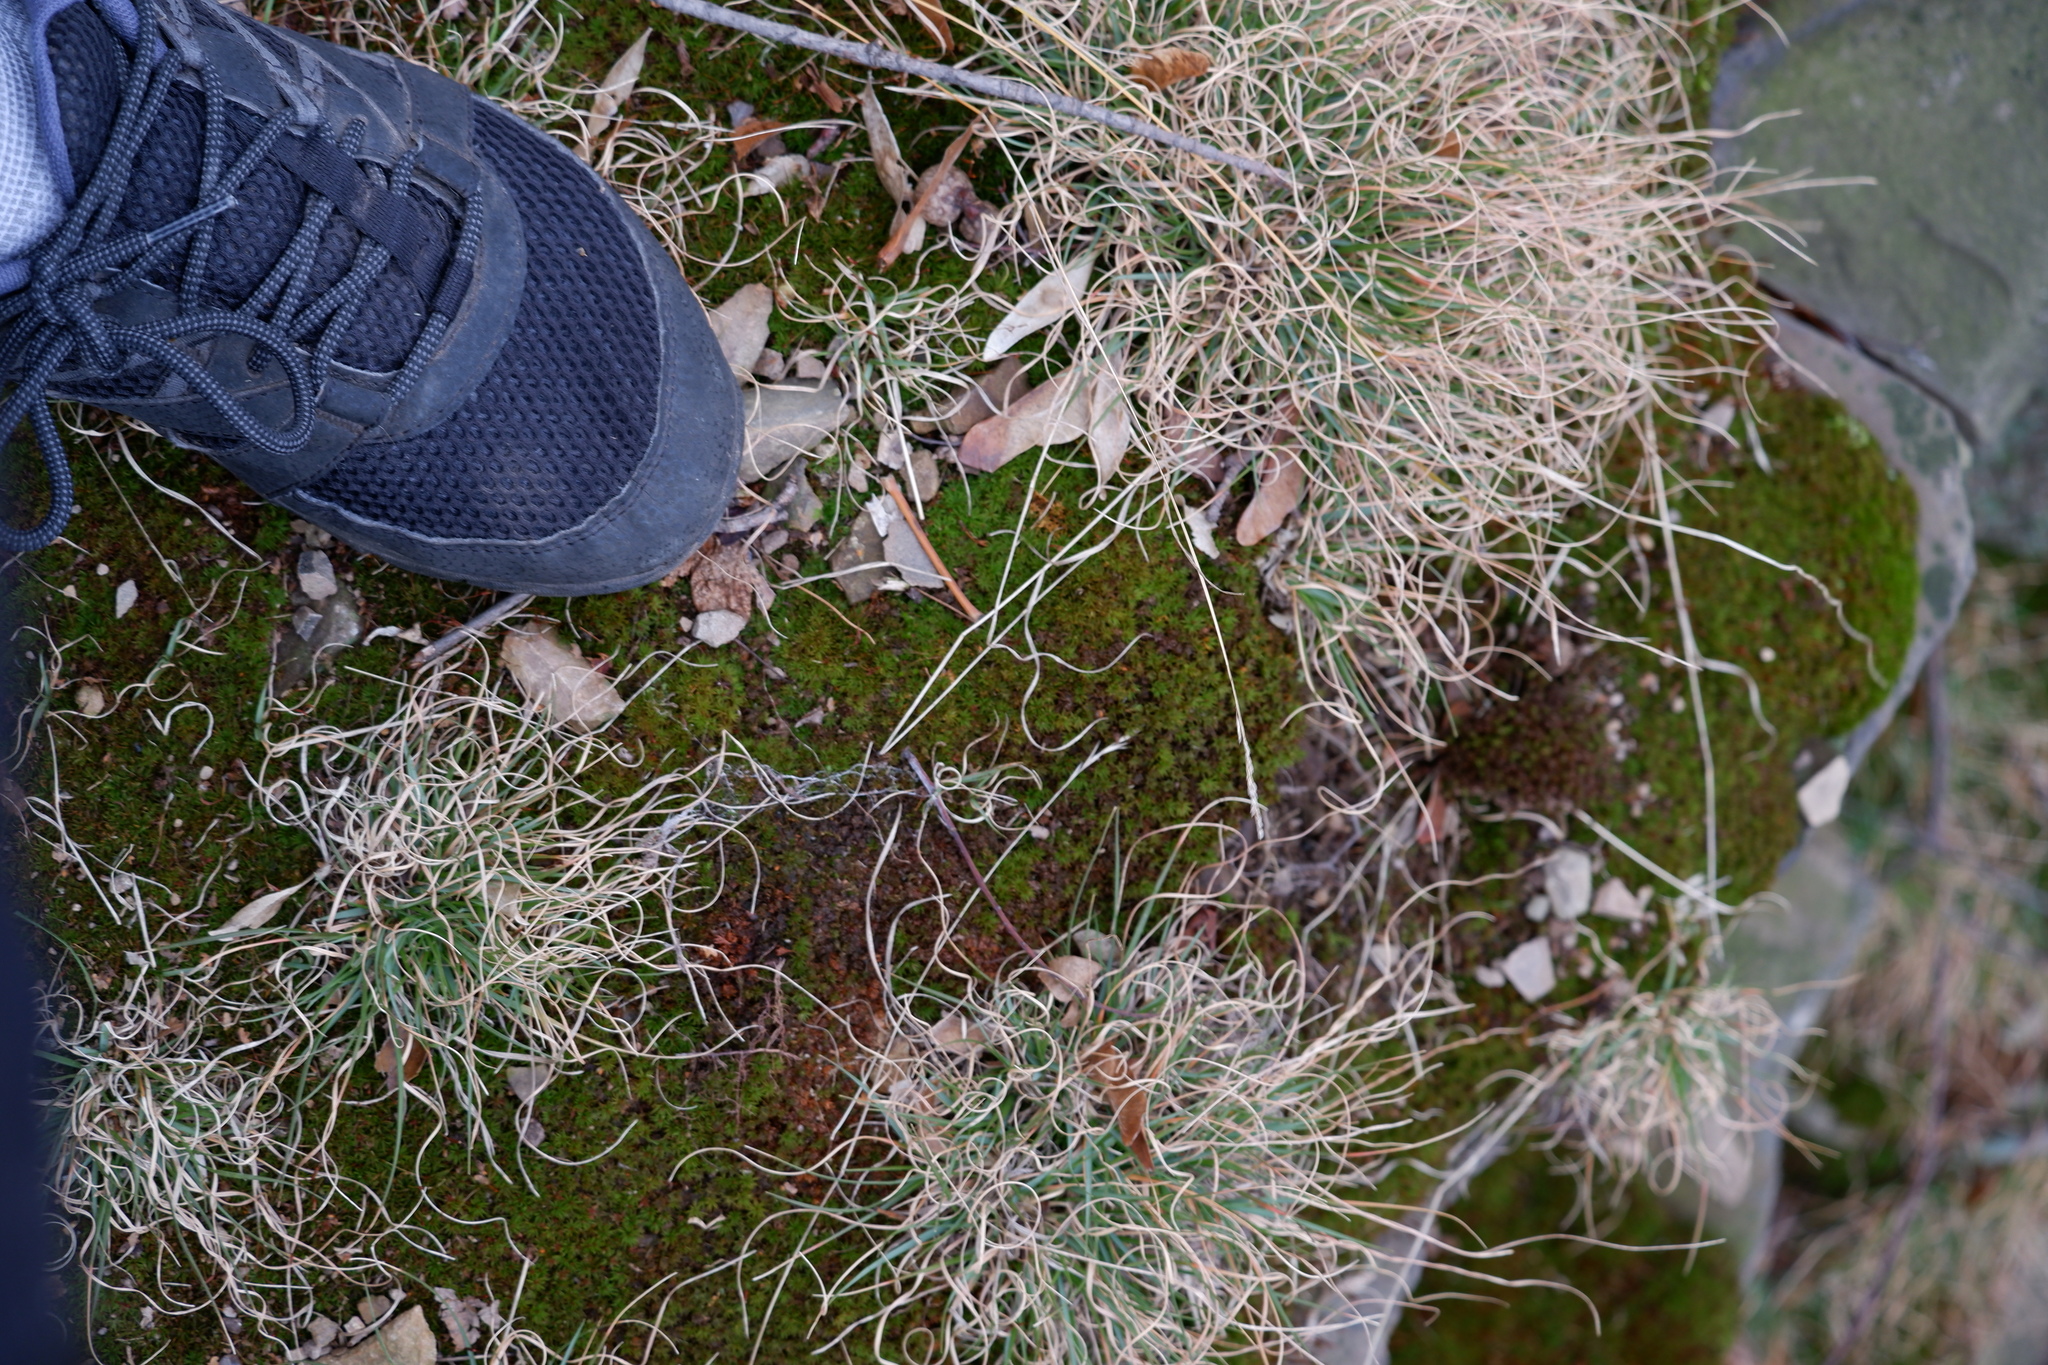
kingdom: Plantae
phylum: Tracheophyta
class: Liliopsida
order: Poales
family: Poaceae
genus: Danthonia
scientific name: Danthonia spicata
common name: Common wild oatgrass
